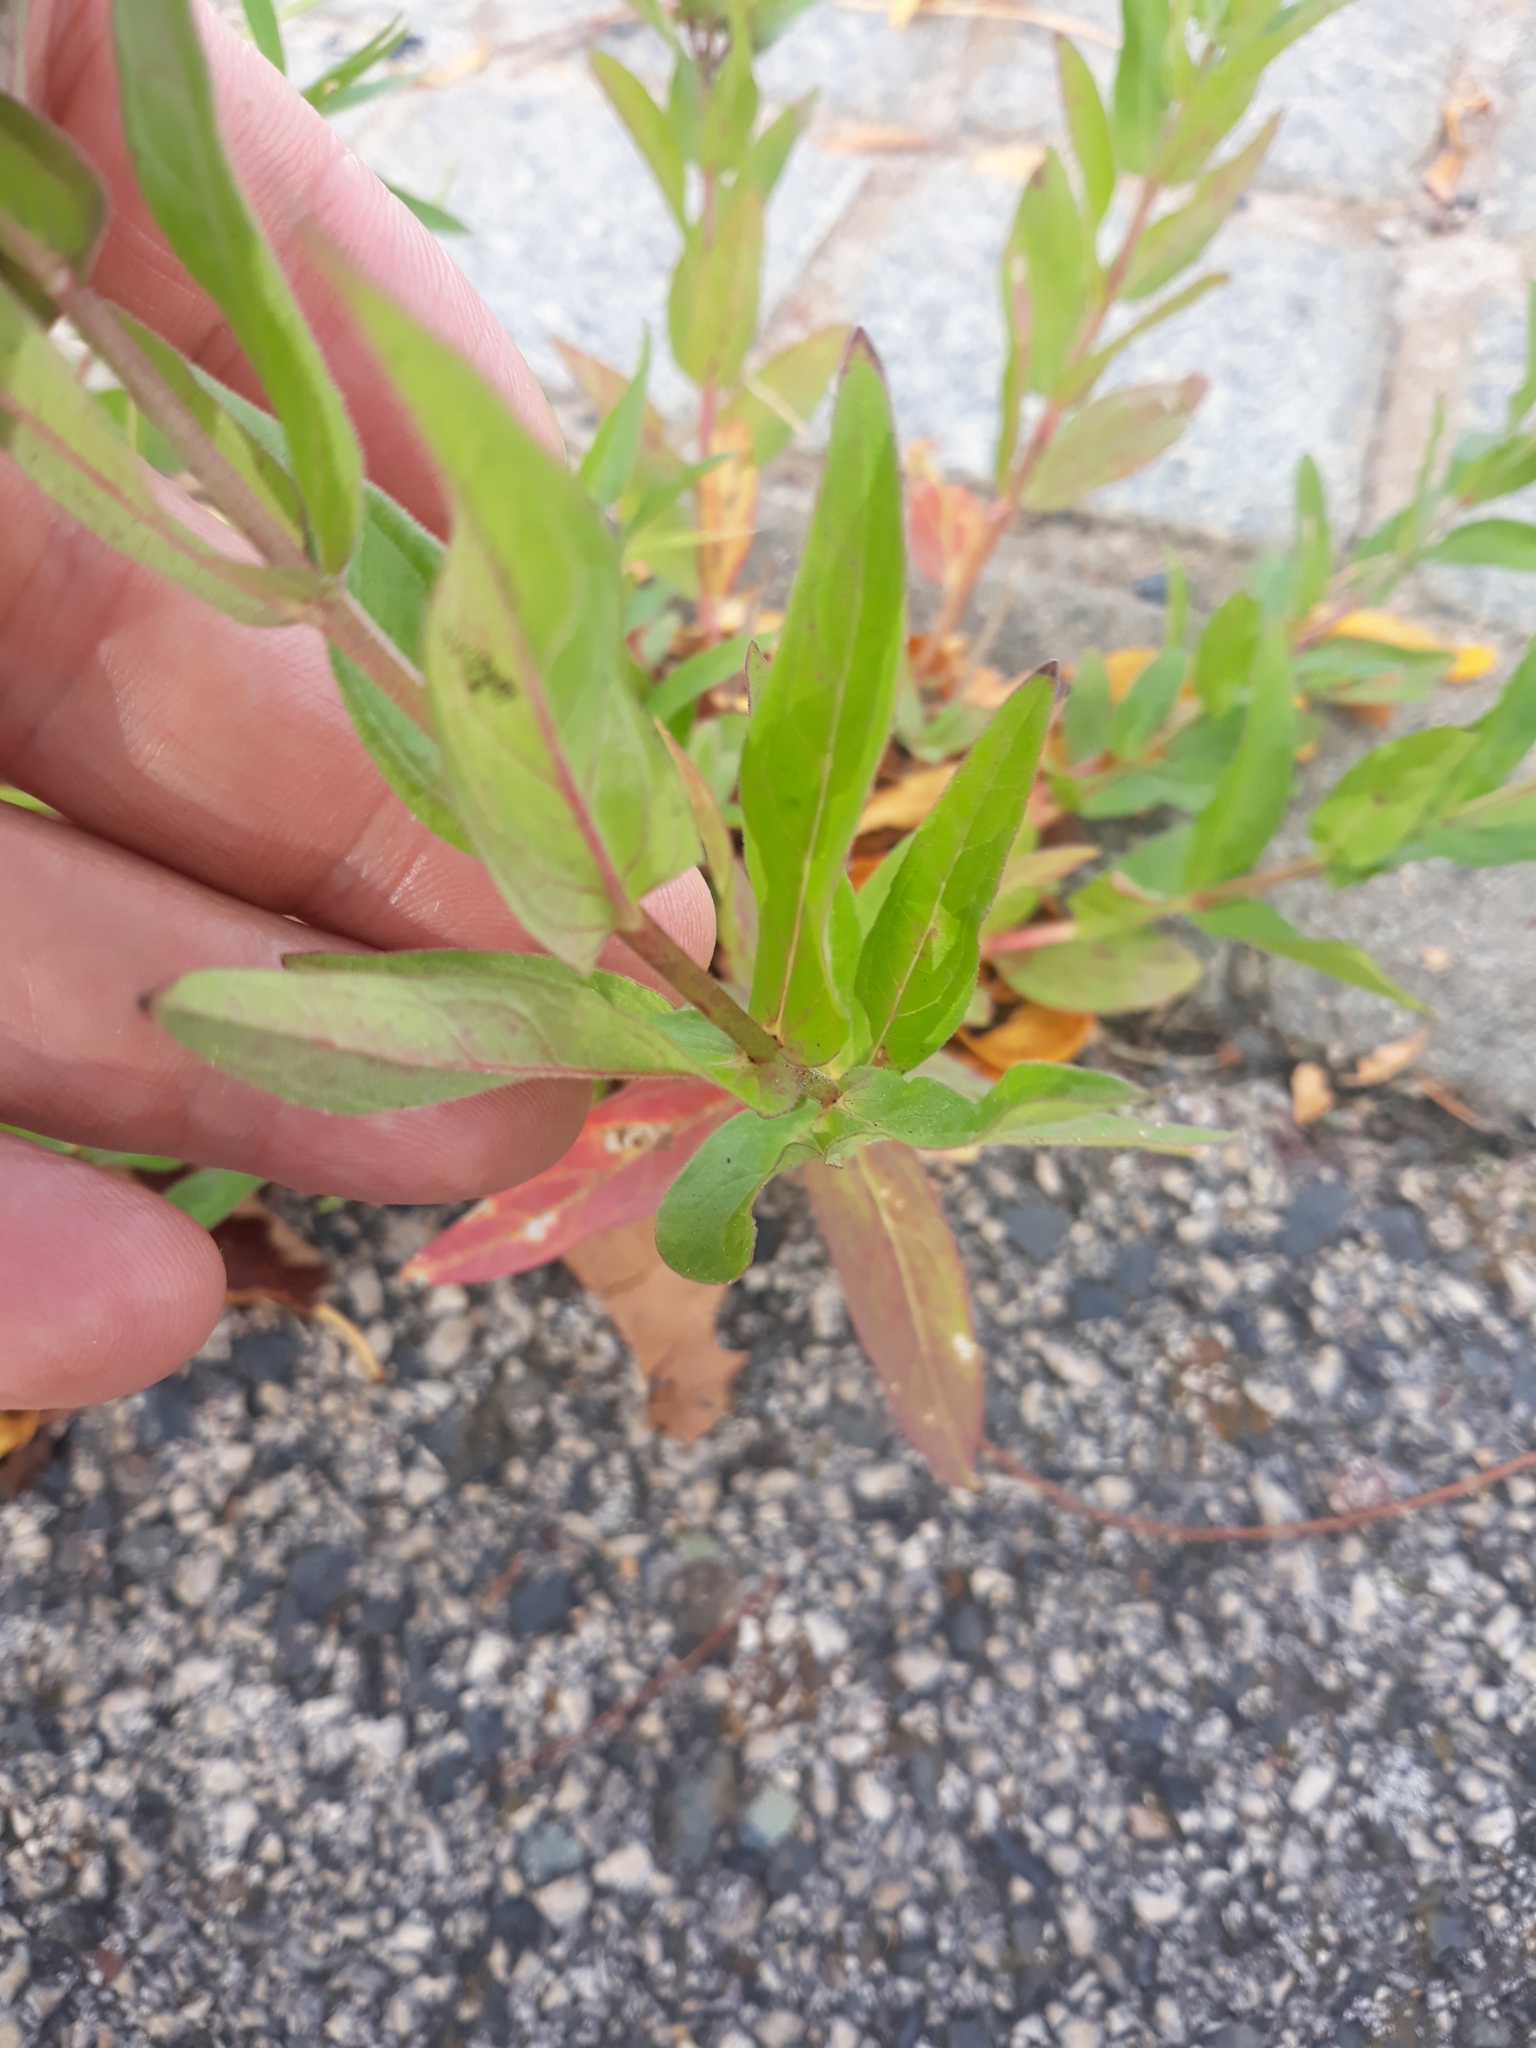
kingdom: Plantae
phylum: Tracheophyta
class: Magnoliopsida
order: Myrtales
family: Lythraceae
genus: Lythrum
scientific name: Lythrum salicaria
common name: Purple loosestrife
